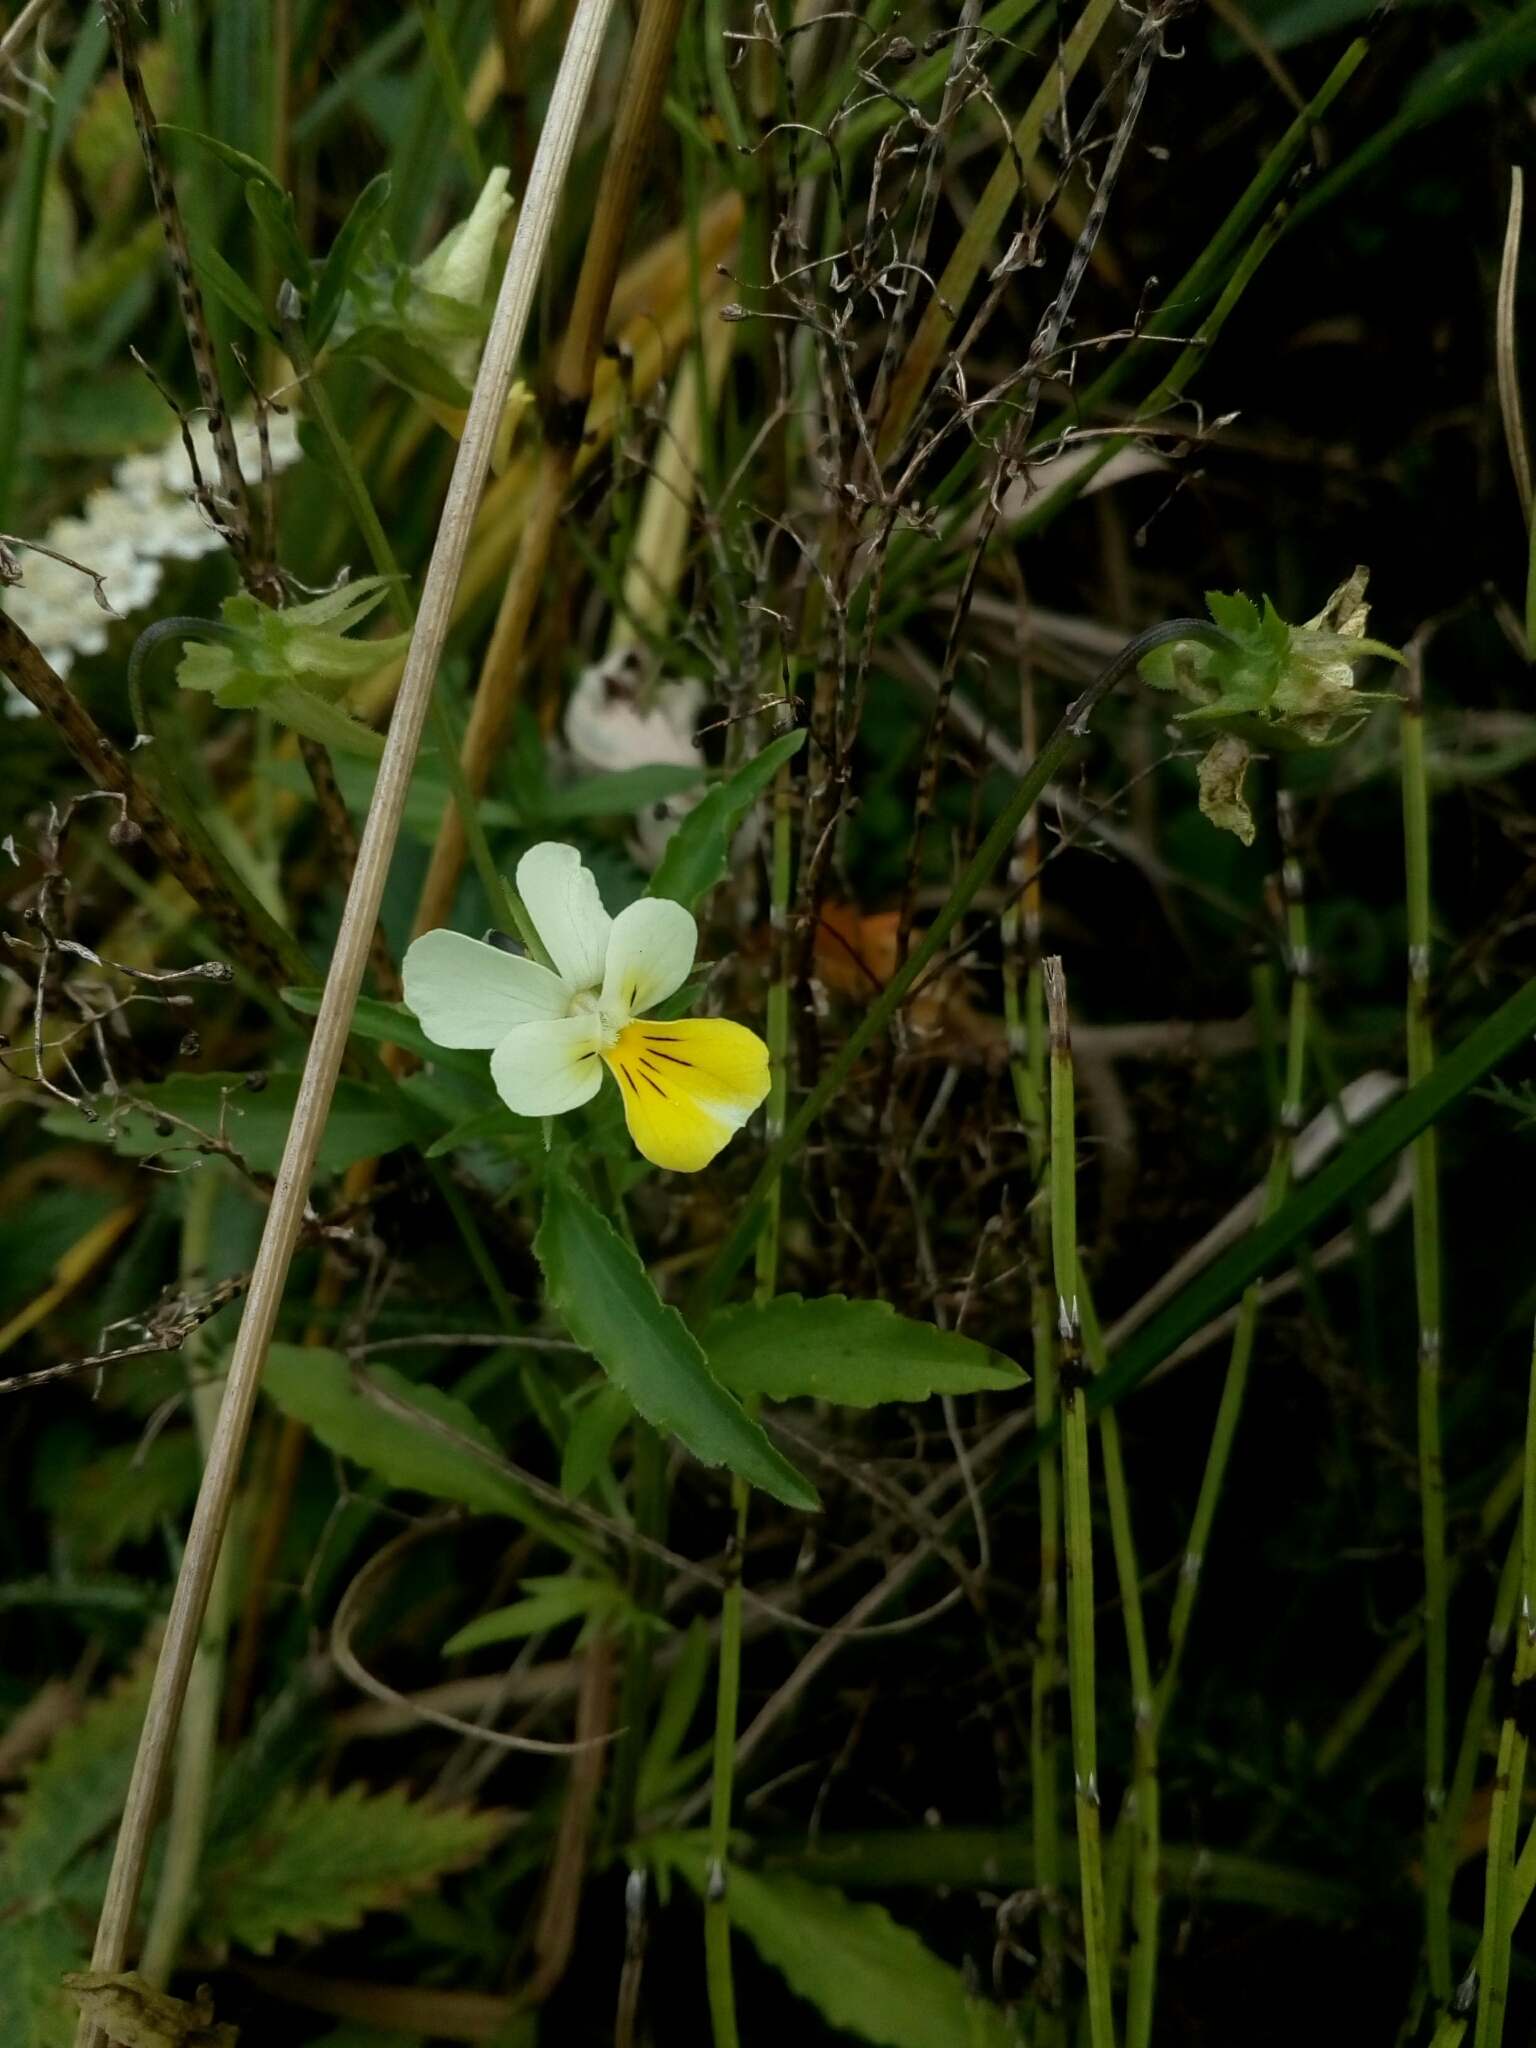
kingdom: Plantae
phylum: Tracheophyta
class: Magnoliopsida
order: Malpighiales
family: Violaceae
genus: Viola
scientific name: Viola arvensis
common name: Field pansy
